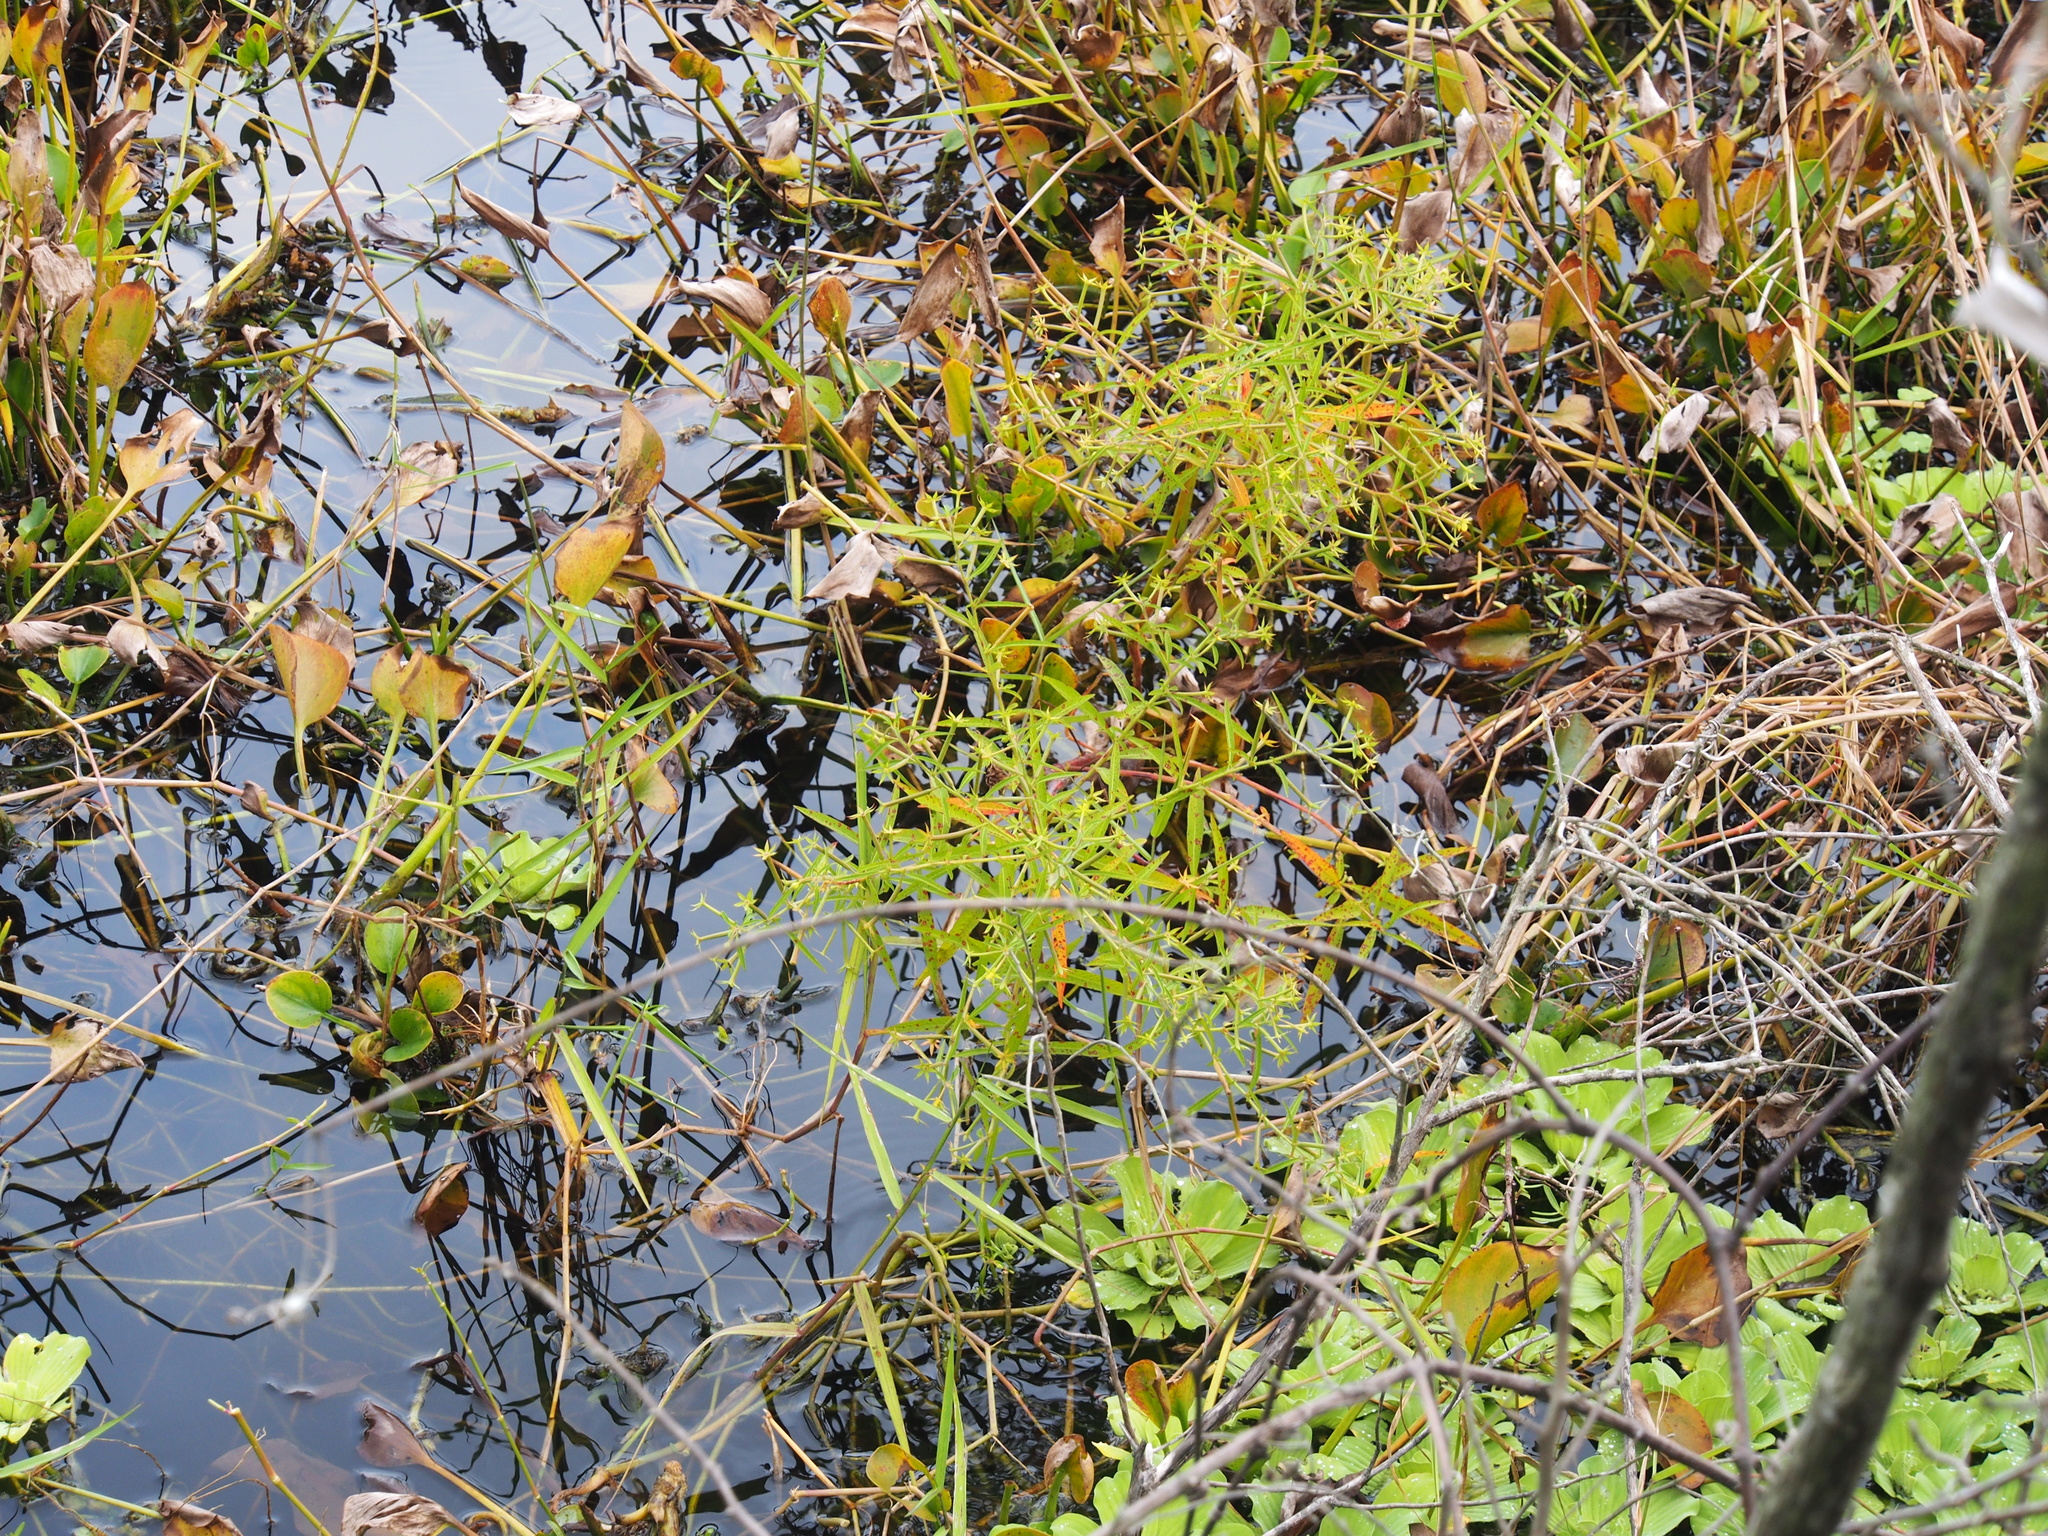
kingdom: Plantae
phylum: Tracheophyta
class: Magnoliopsida
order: Myrtales
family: Onagraceae
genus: Ludwigia
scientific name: Ludwigia leptocarpa
